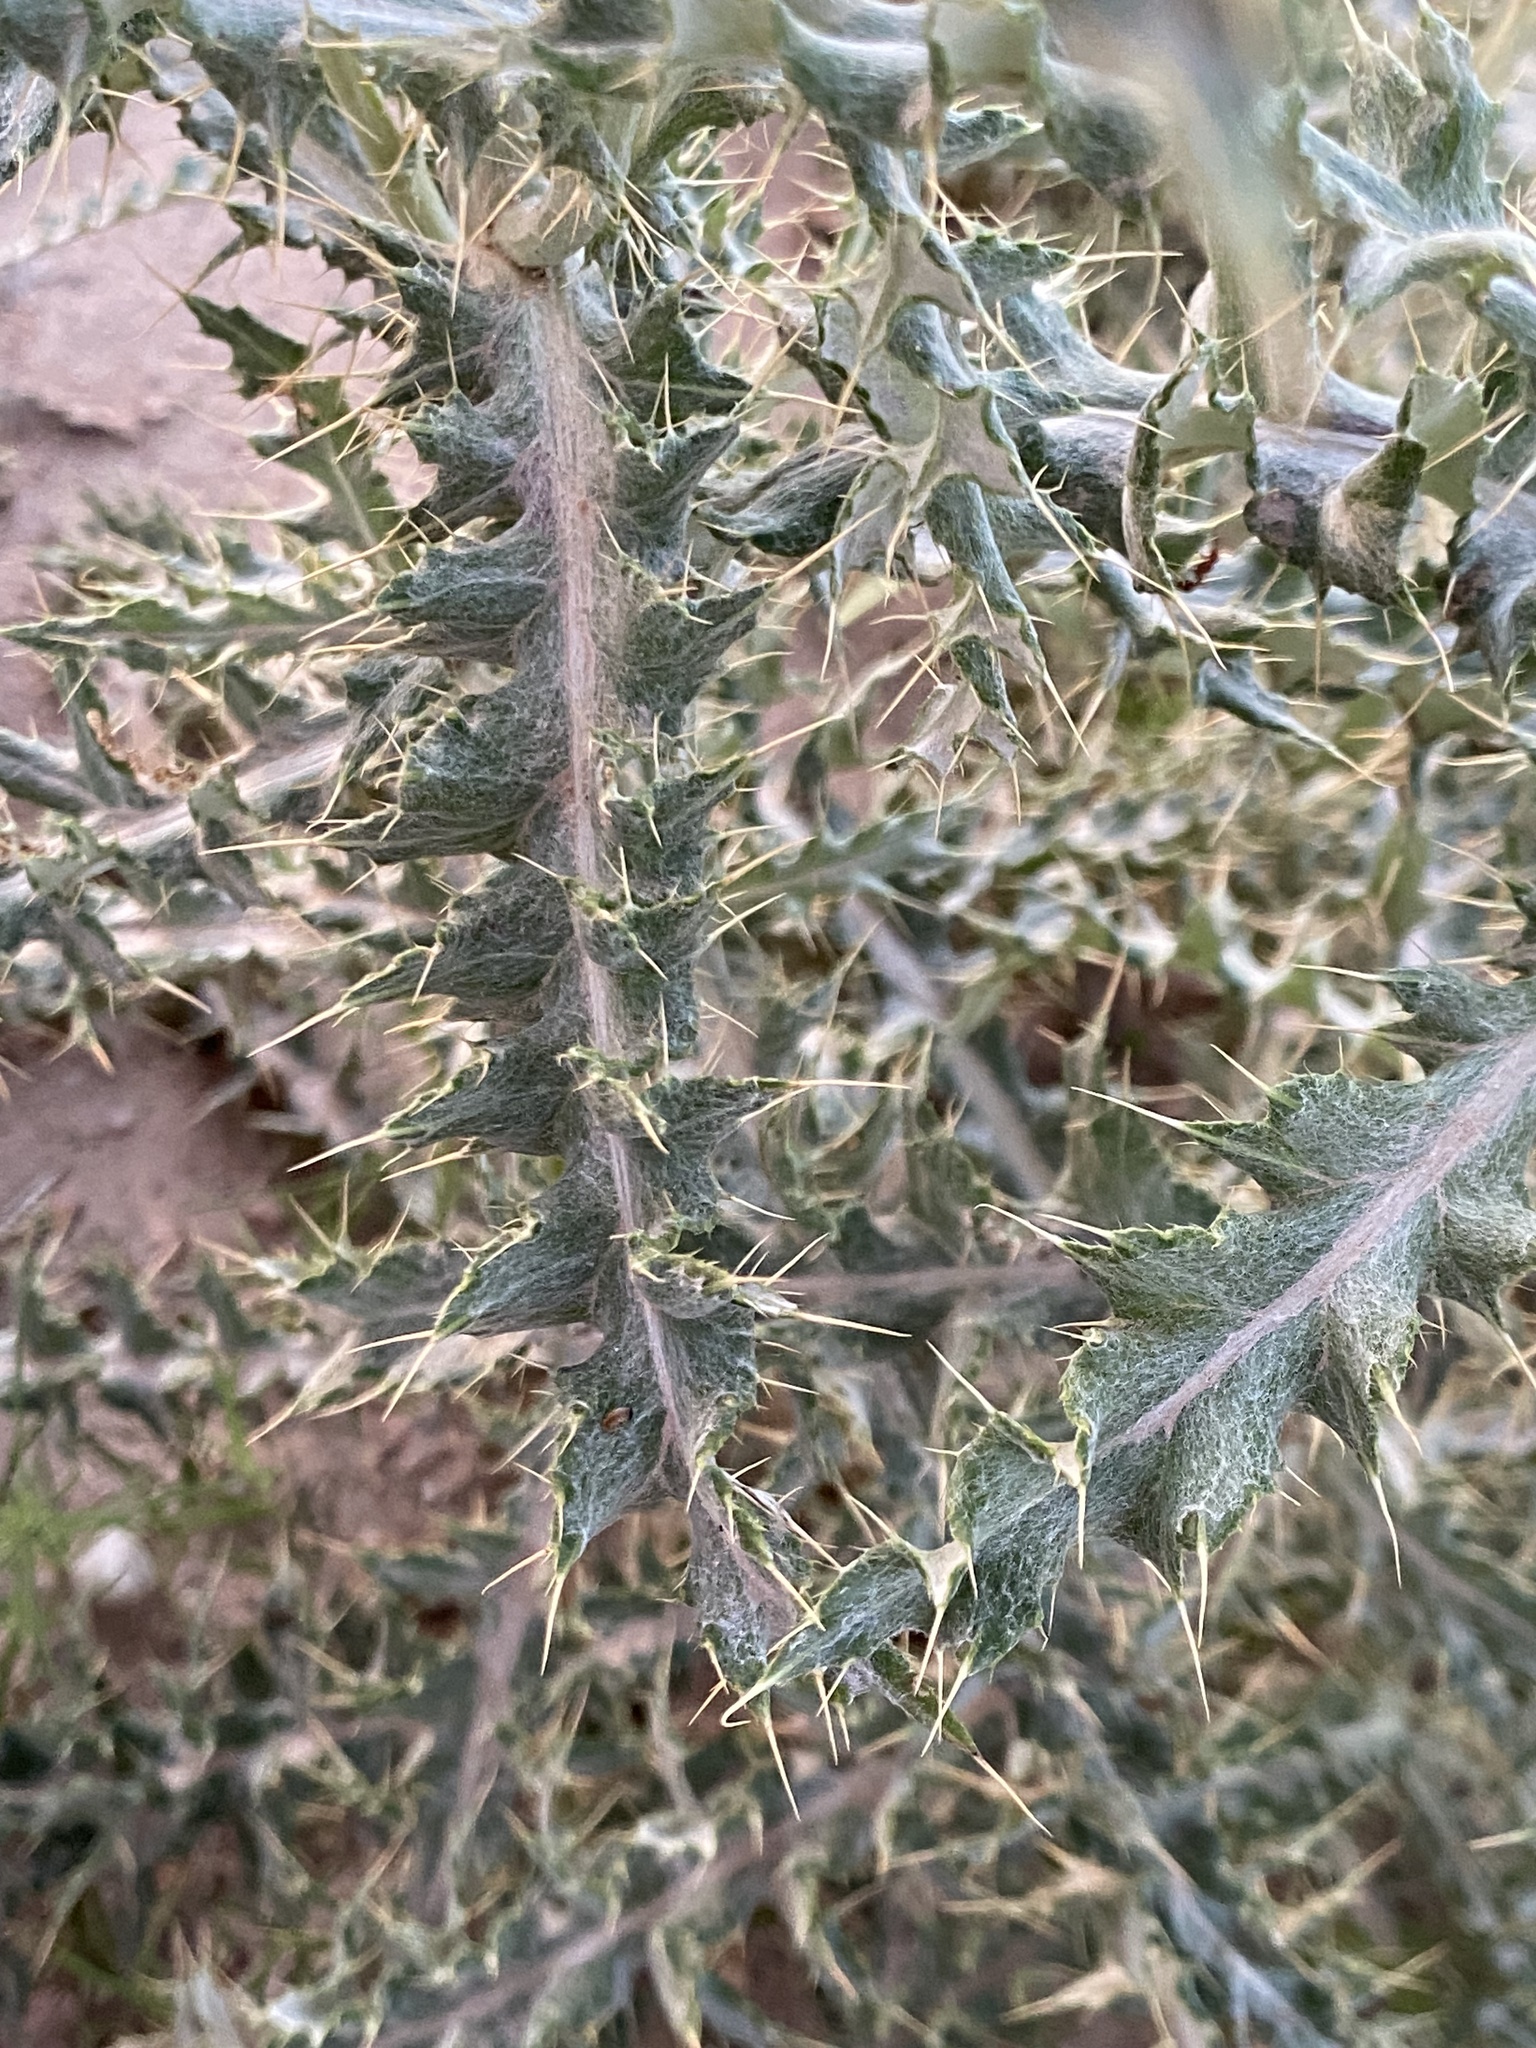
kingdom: Plantae
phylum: Tracheophyta
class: Magnoliopsida
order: Asterales
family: Asteraceae
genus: Cirsium
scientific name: Cirsium ochrocentrum
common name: Yellow-spine thistle
